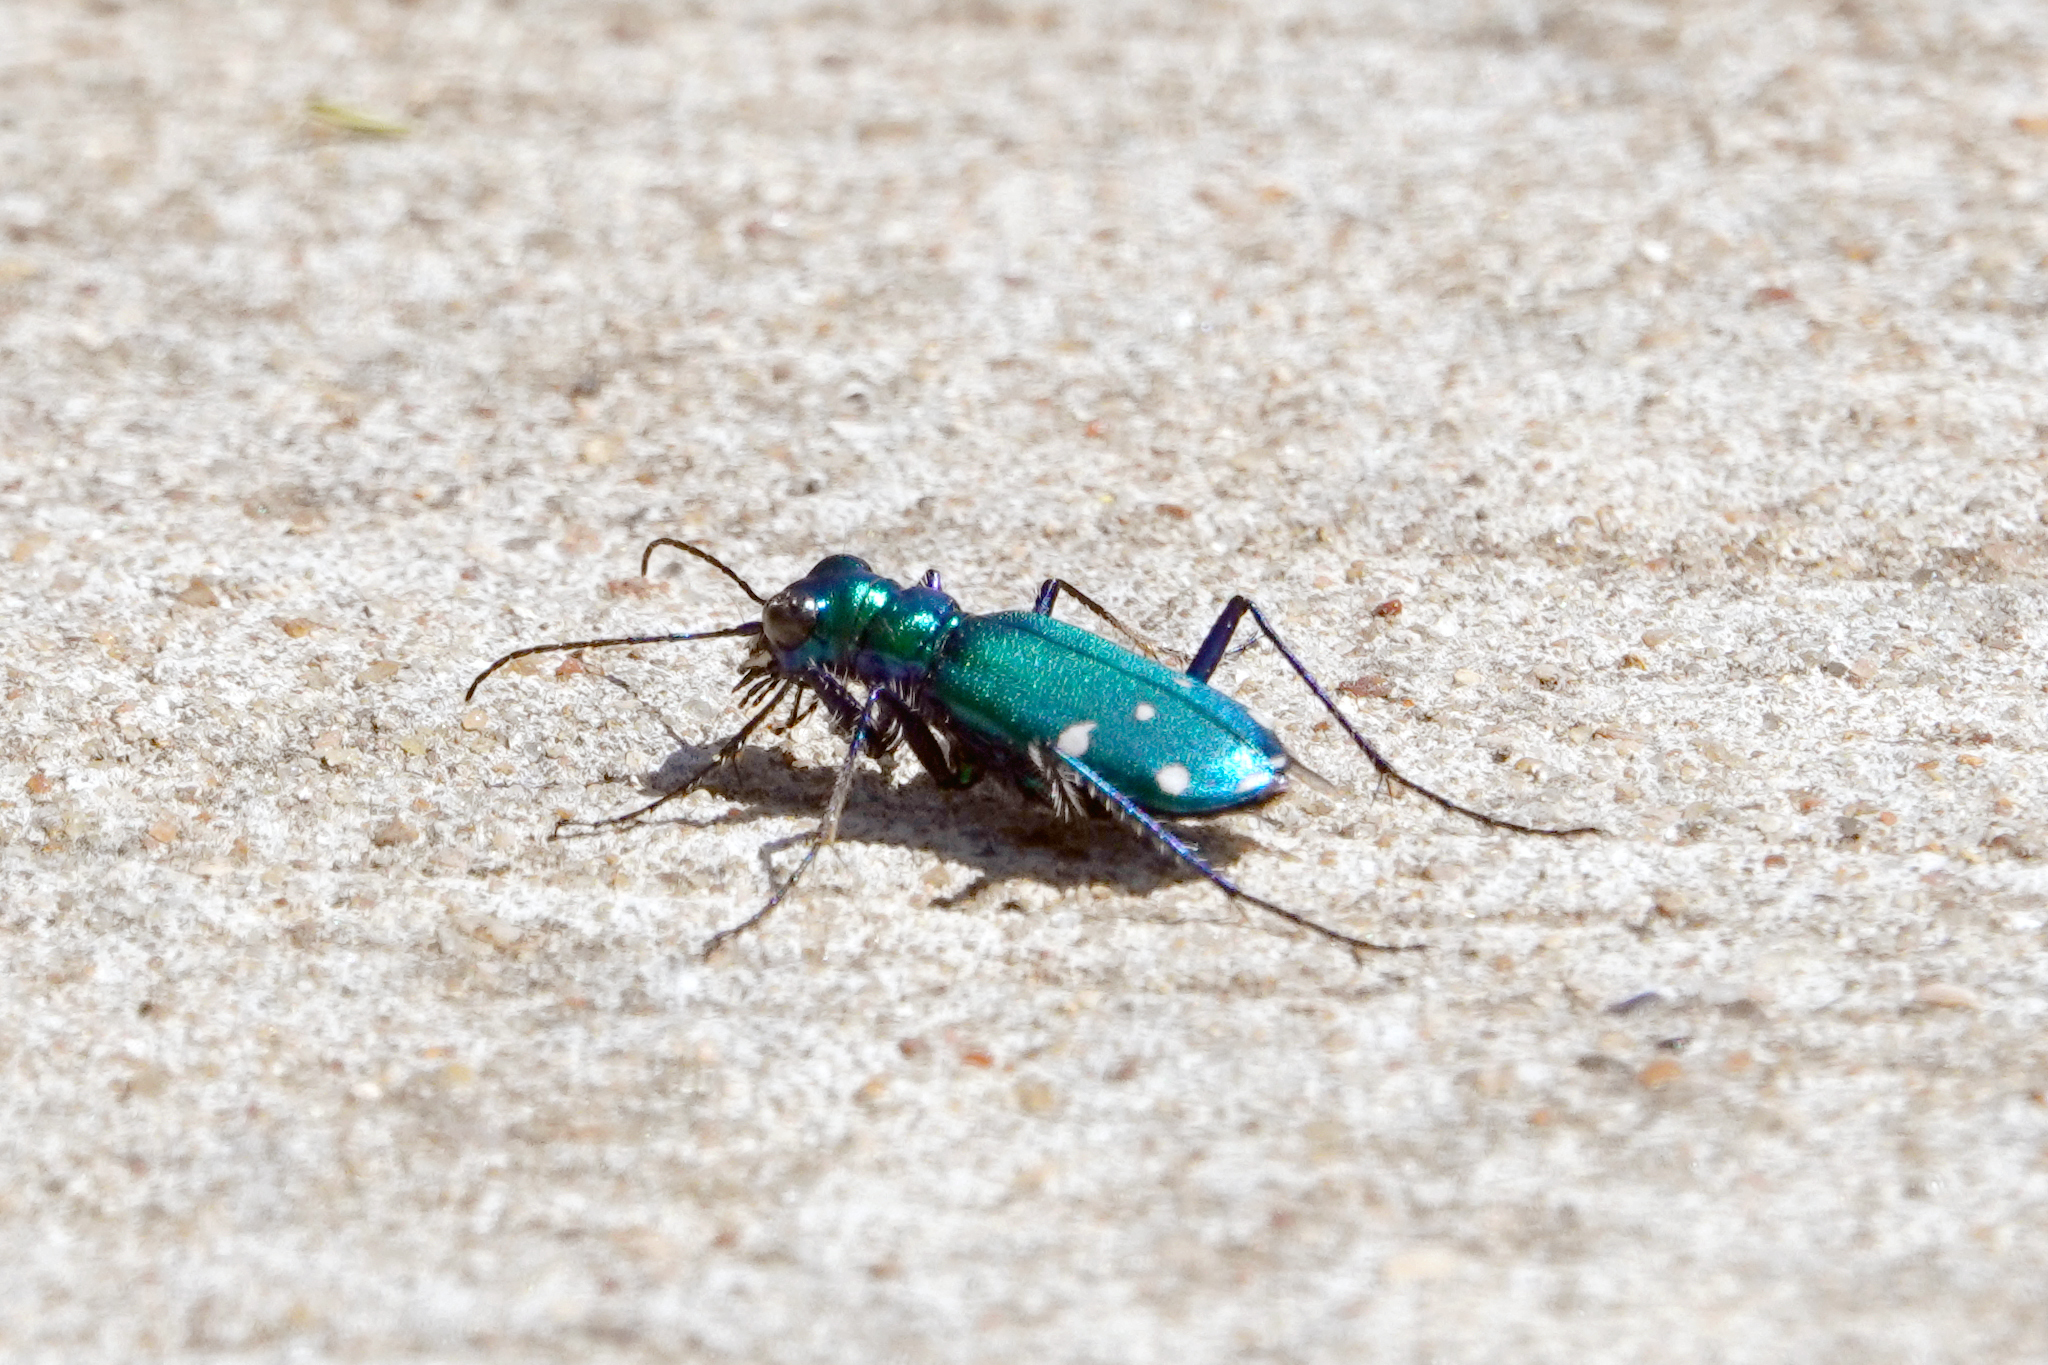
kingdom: Animalia
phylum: Arthropoda
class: Insecta
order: Coleoptera
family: Carabidae
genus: Cicindela
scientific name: Cicindela sexguttata
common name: Six-spotted tiger beetle
